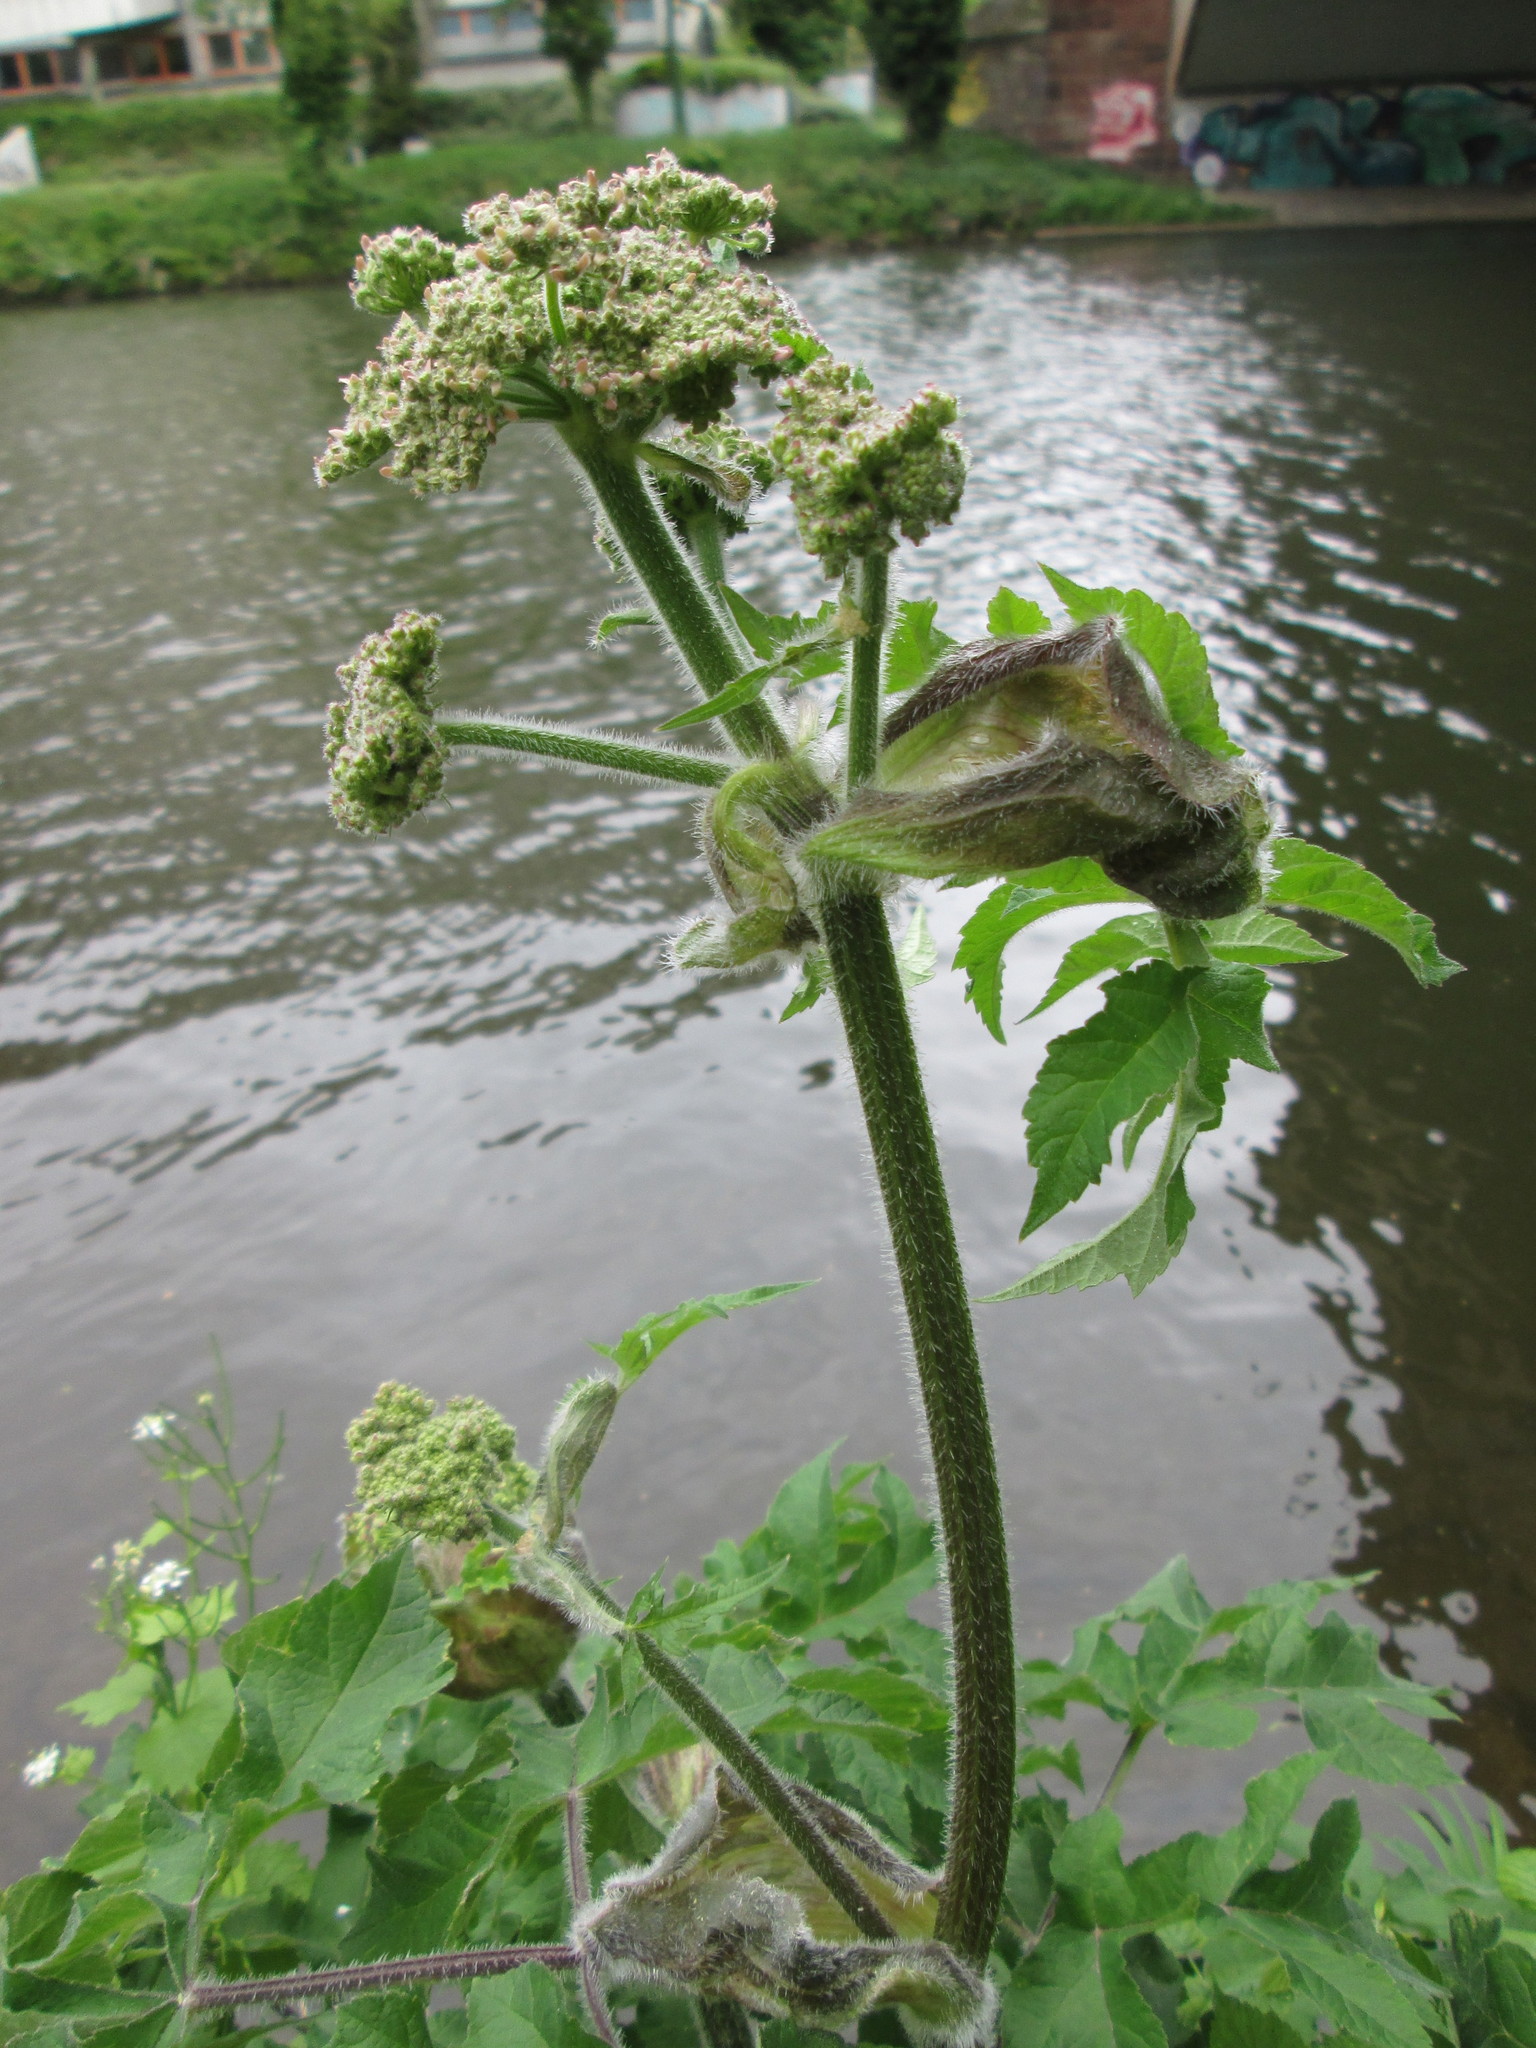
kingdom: Plantae
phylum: Tracheophyta
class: Magnoliopsida
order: Apiales
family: Apiaceae
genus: Heracleum
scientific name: Heracleum sphondylium
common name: Hogweed
